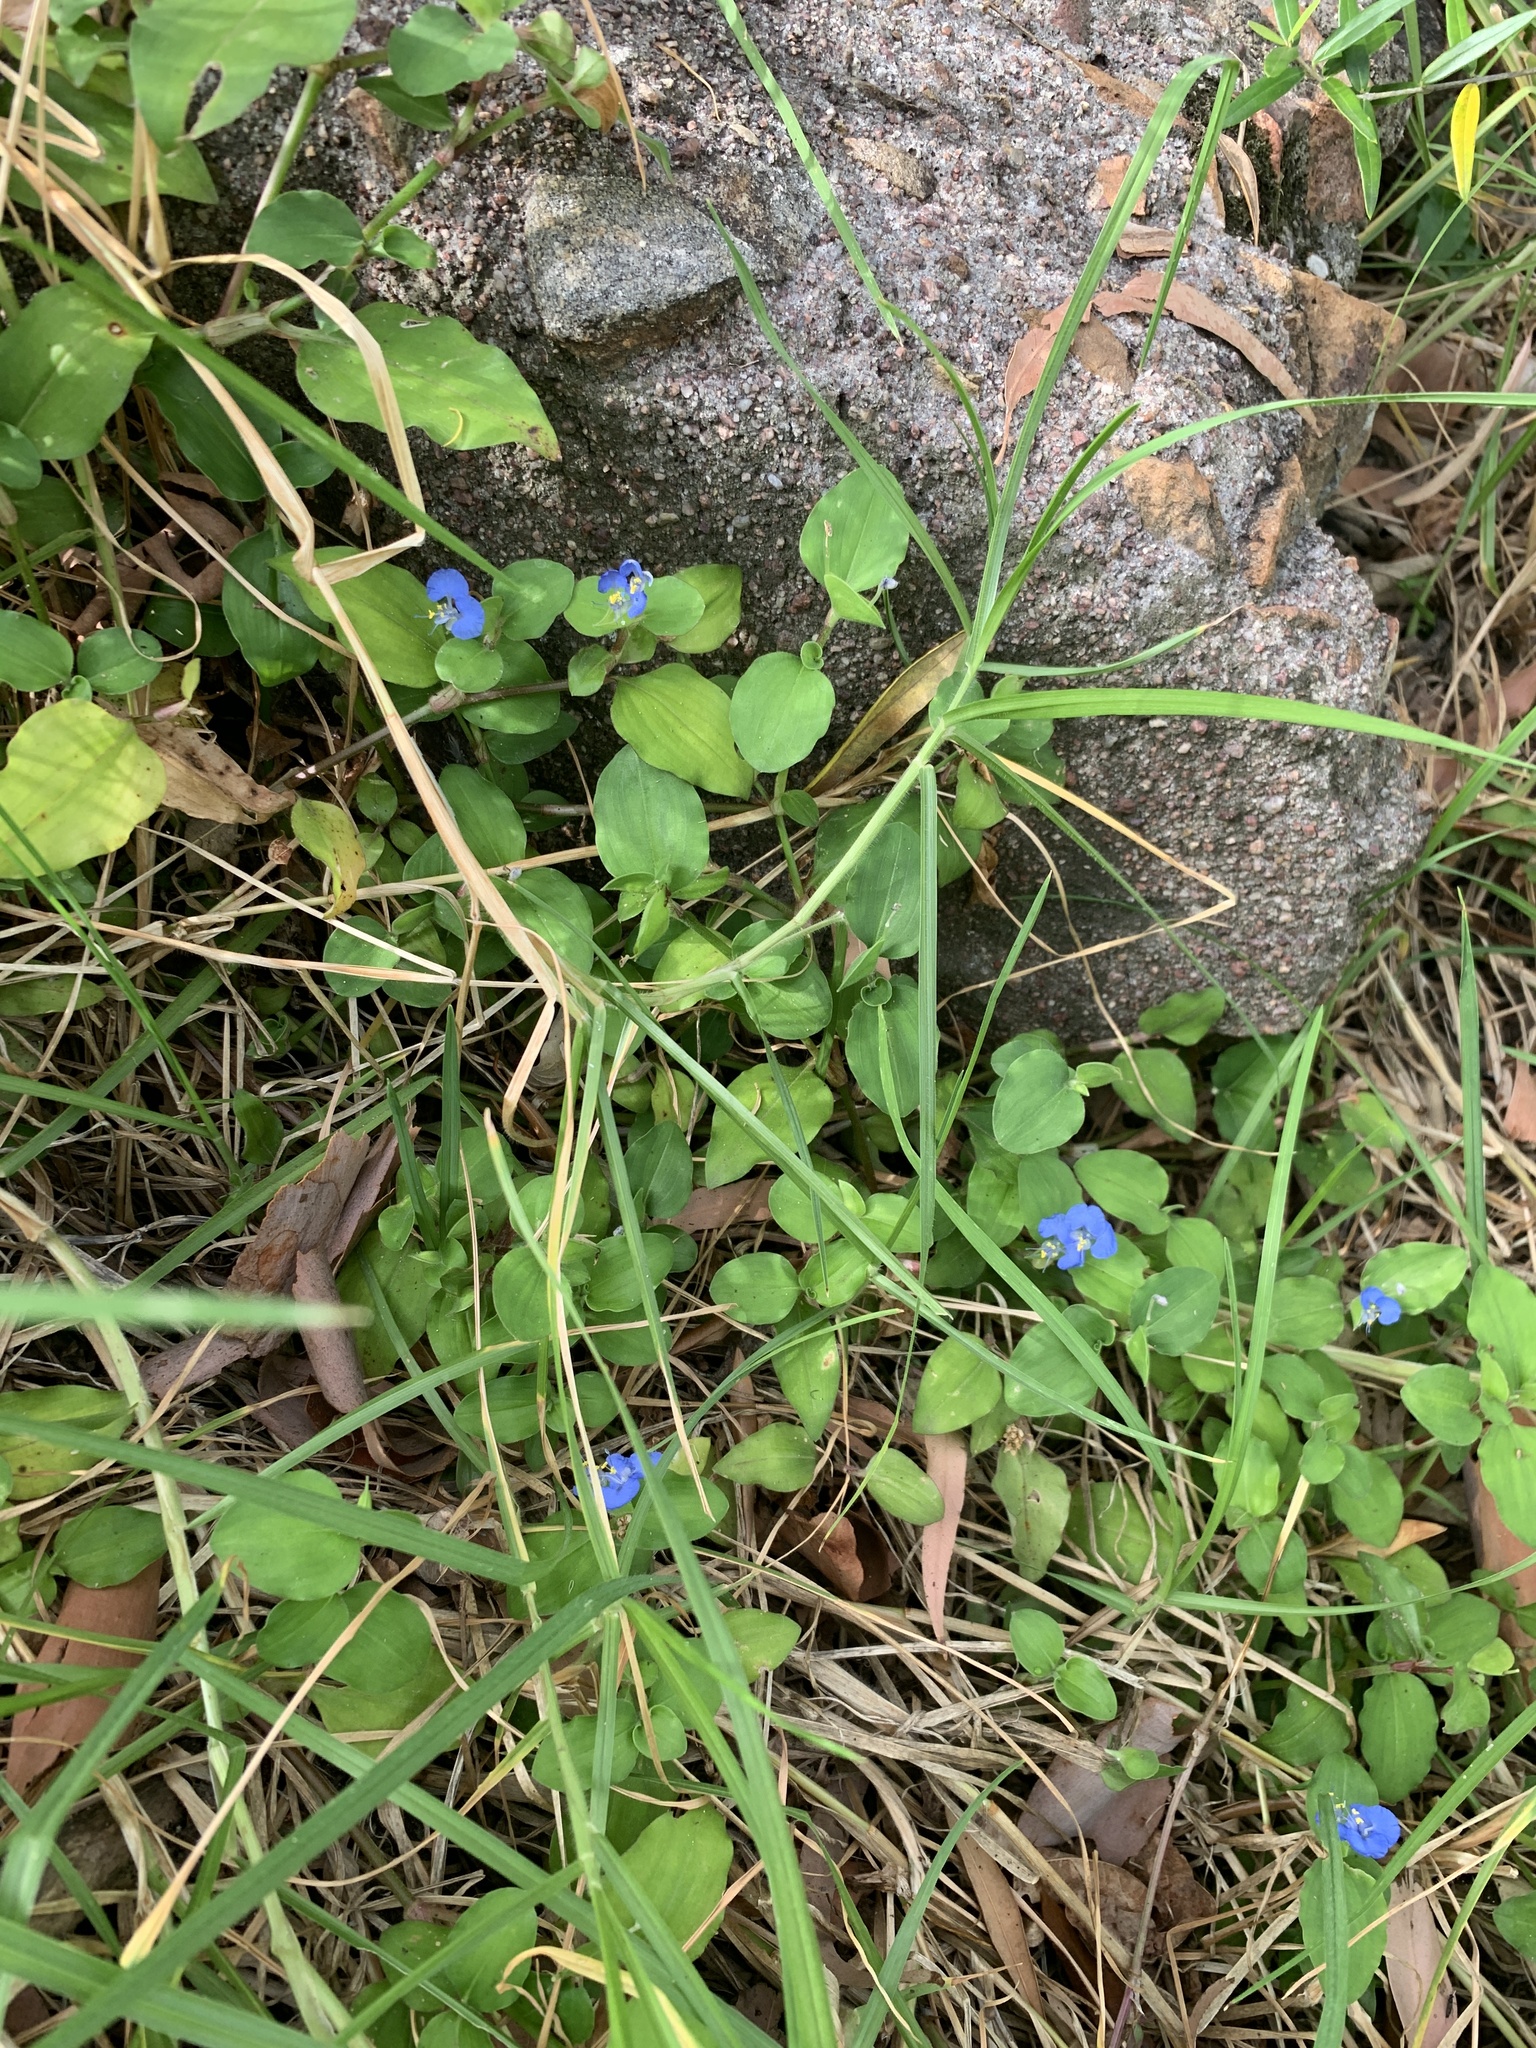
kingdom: Plantae
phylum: Tracheophyta
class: Liliopsida
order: Commelinales
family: Commelinaceae
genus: Commelina
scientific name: Commelina benghalensis
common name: Jio
